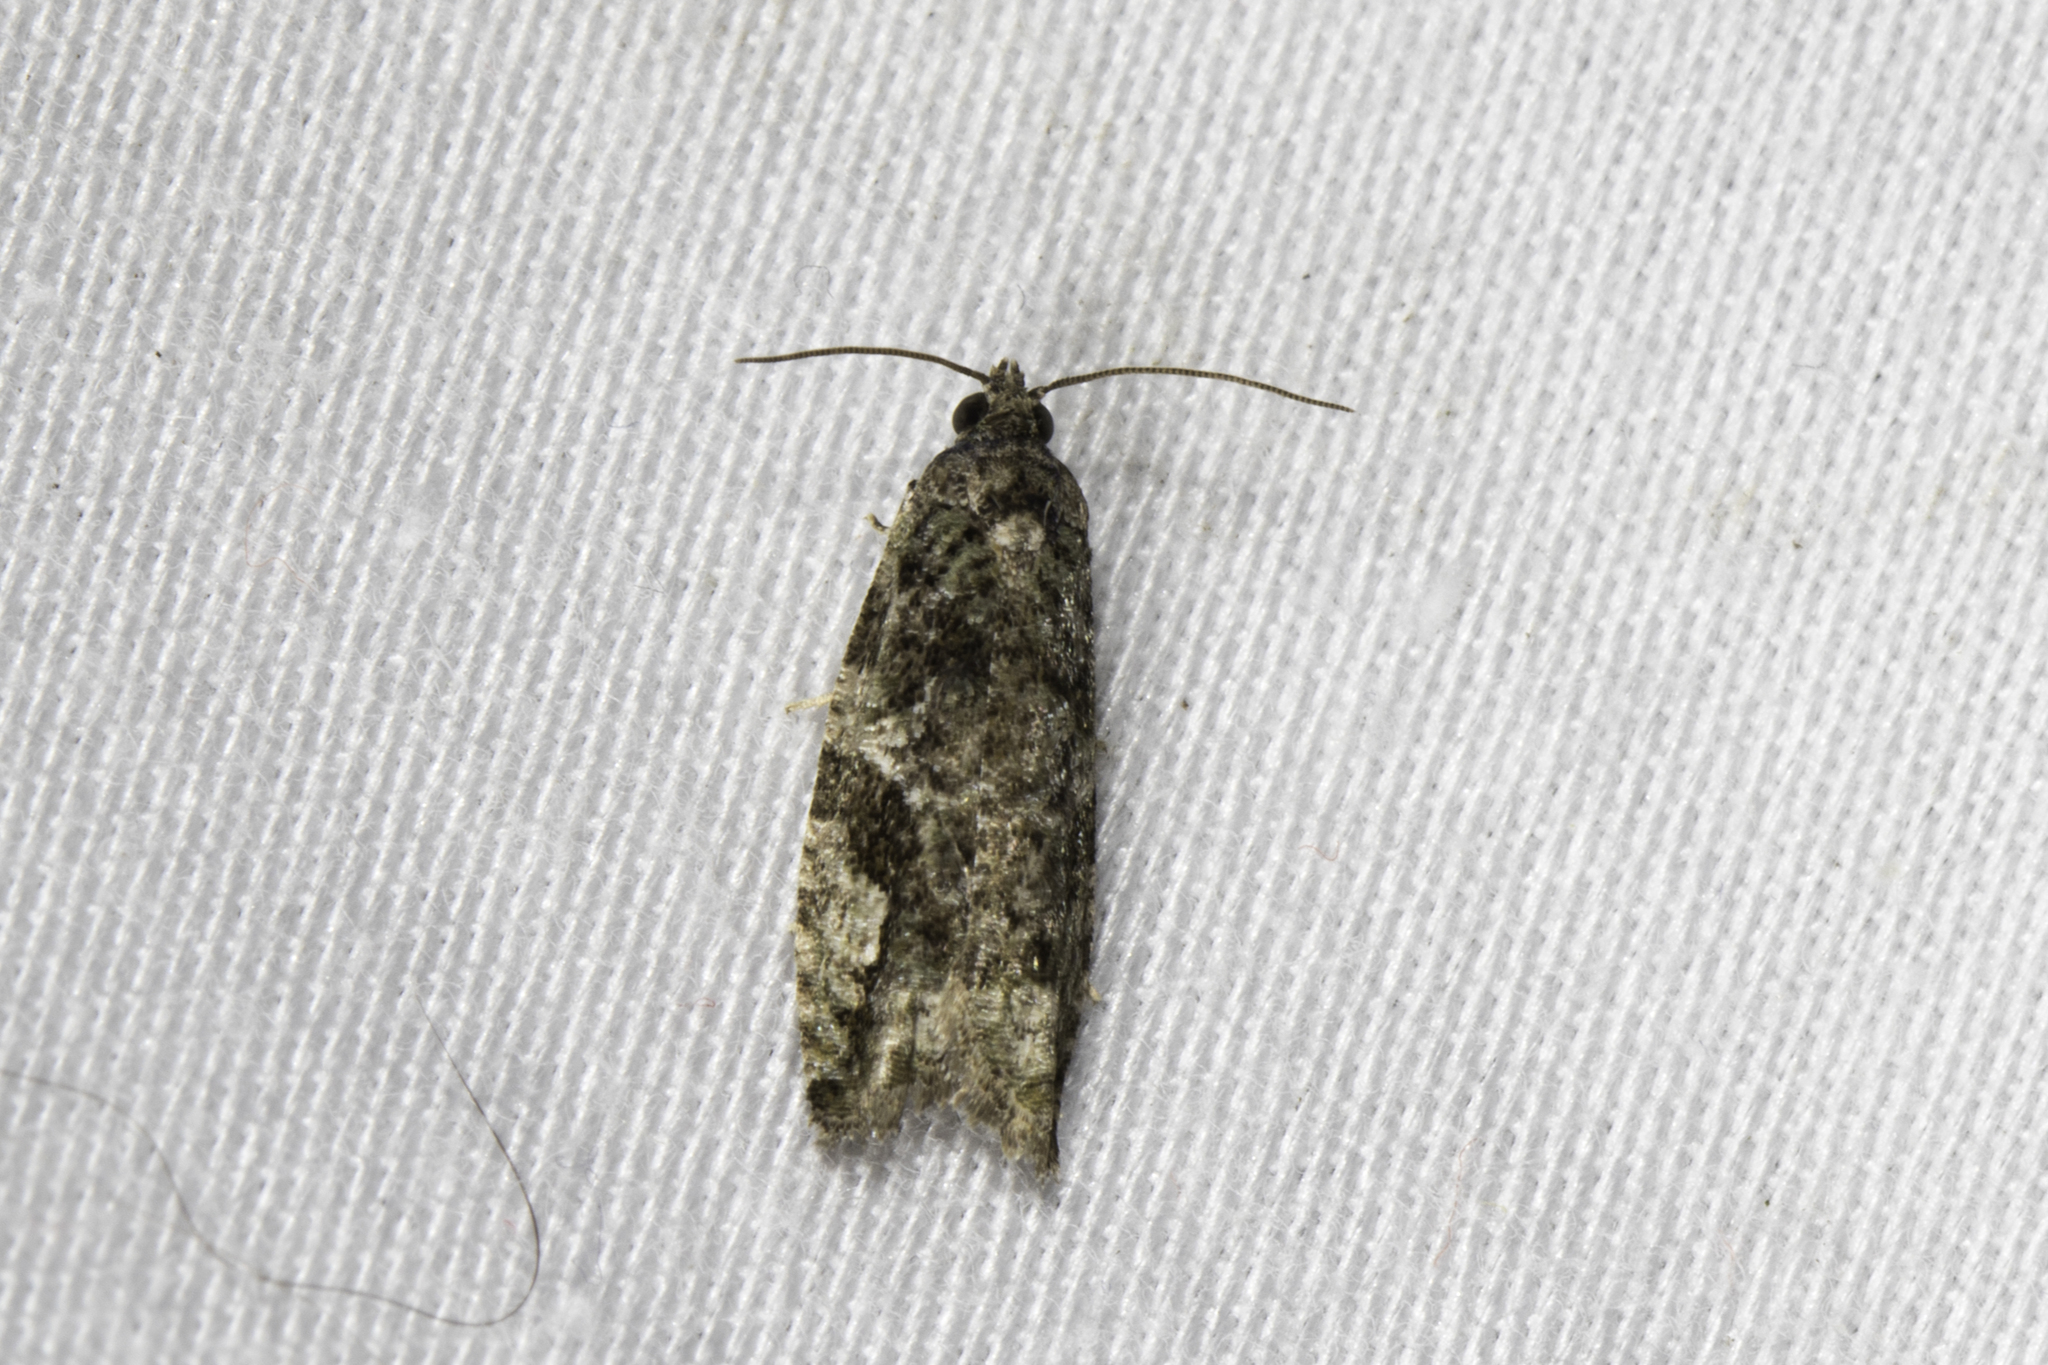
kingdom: Animalia
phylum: Arthropoda
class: Insecta
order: Lepidoptera
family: Tortricidae
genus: Proteoteras
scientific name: Proteoteras aesculana
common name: Maple twig borer moth
